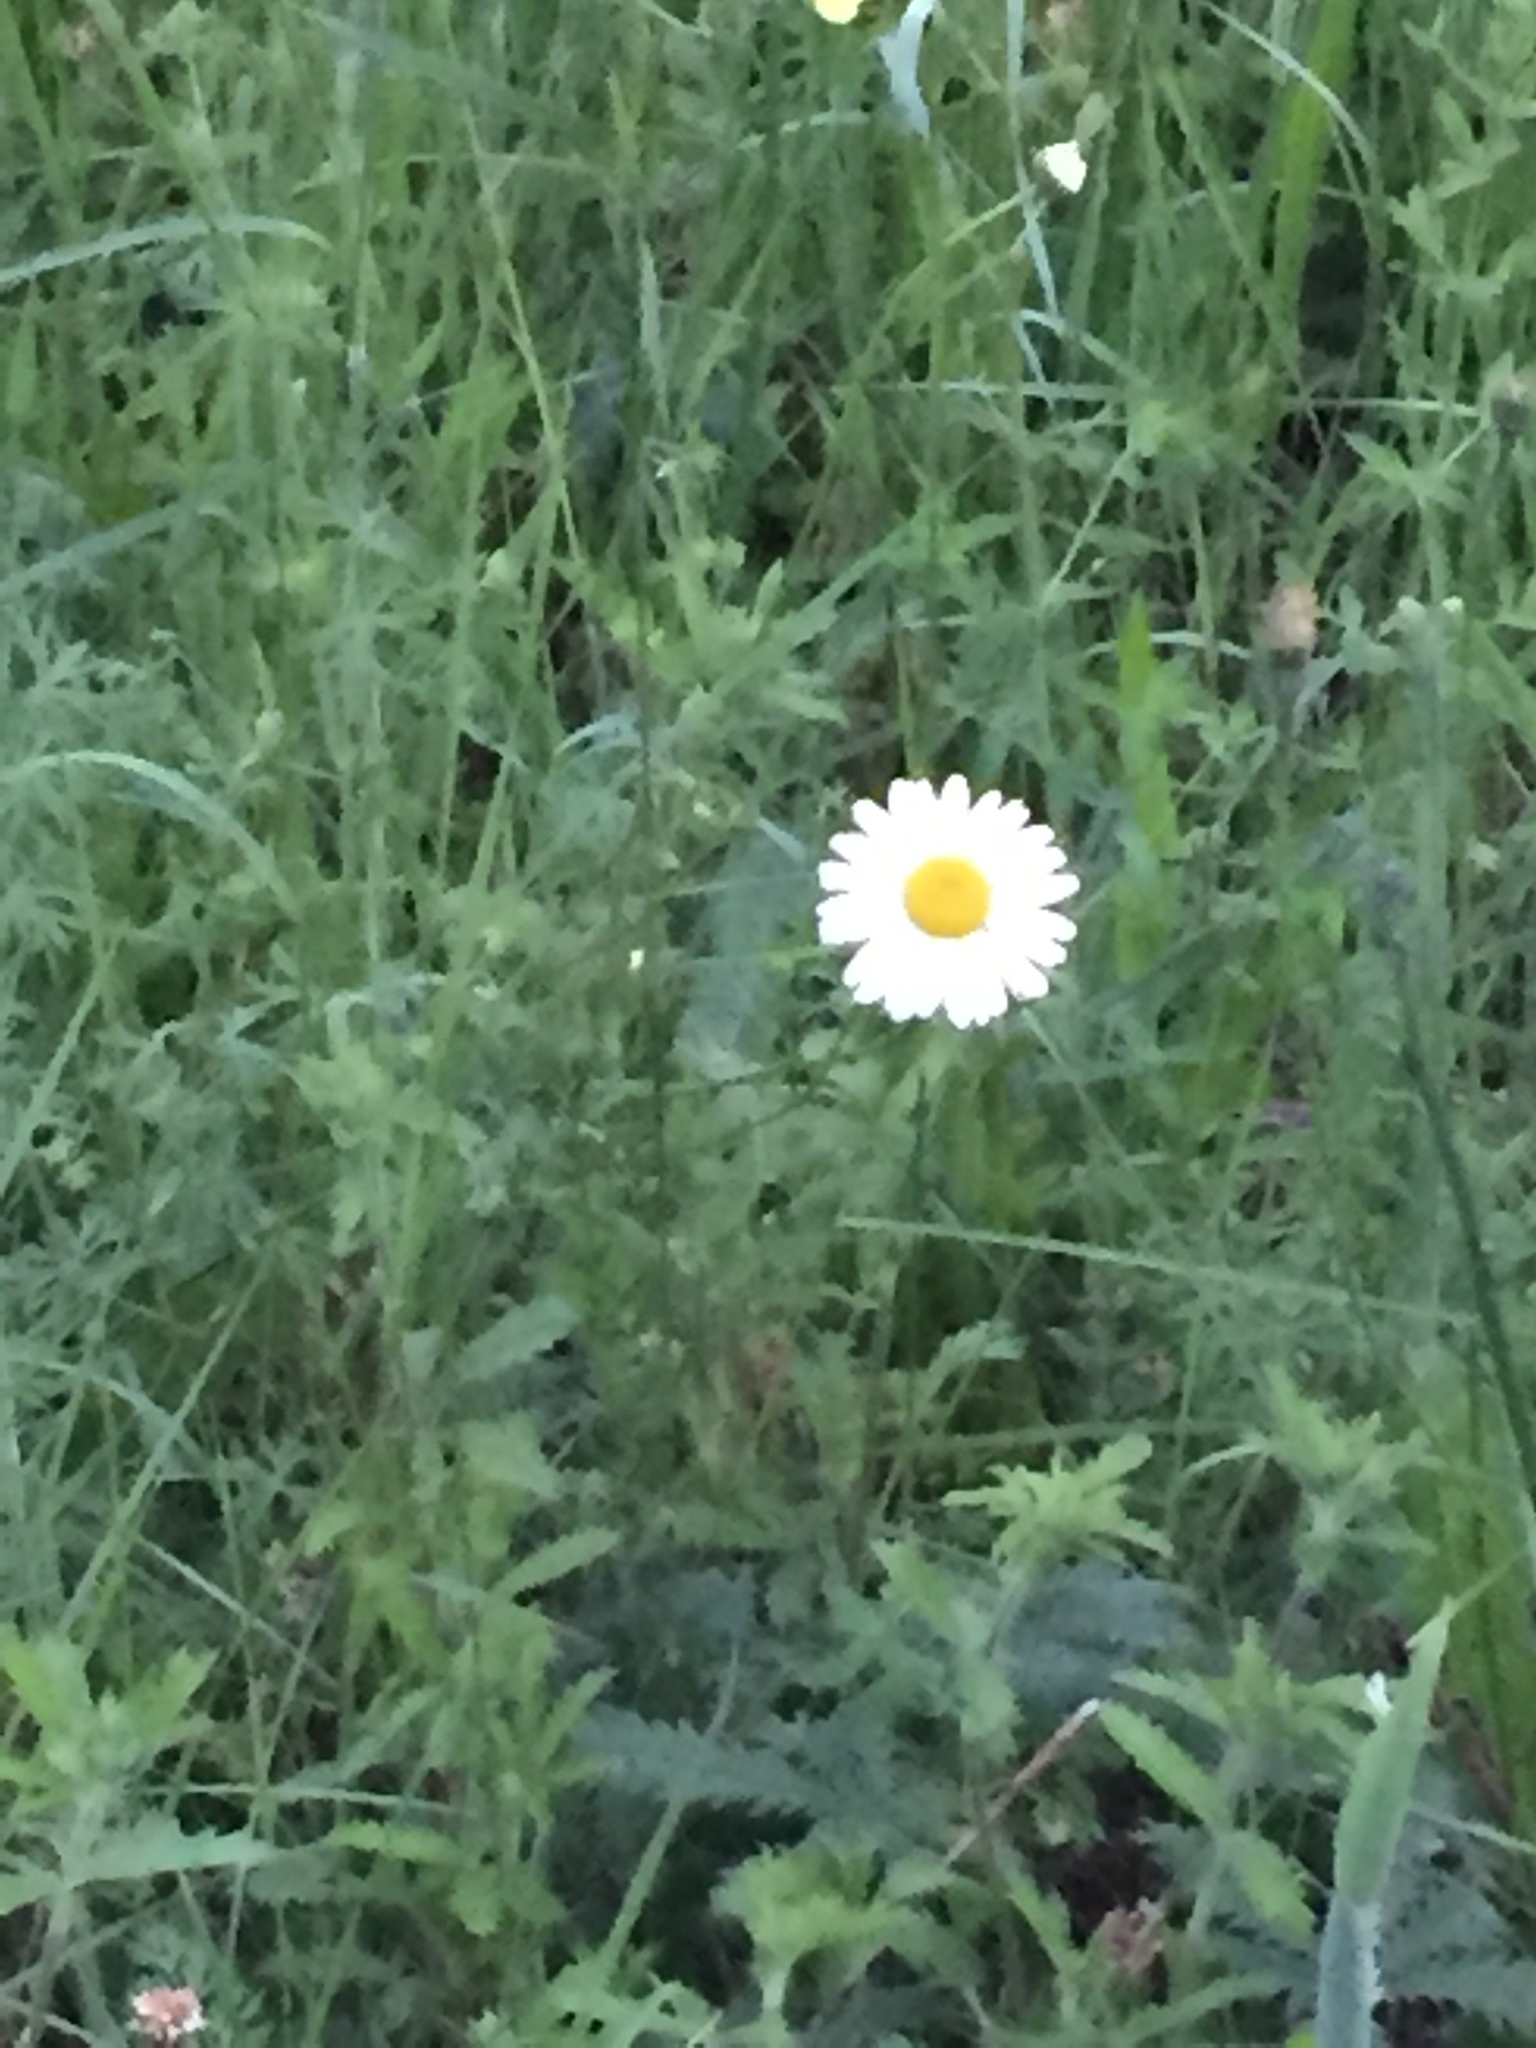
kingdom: Plantae
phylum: Tracheophyta
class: Magnoliopsida
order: Asterales
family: Asteraceae
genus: Leucanthemum
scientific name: Leucanthemum vulgare
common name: Oxeye daisy
